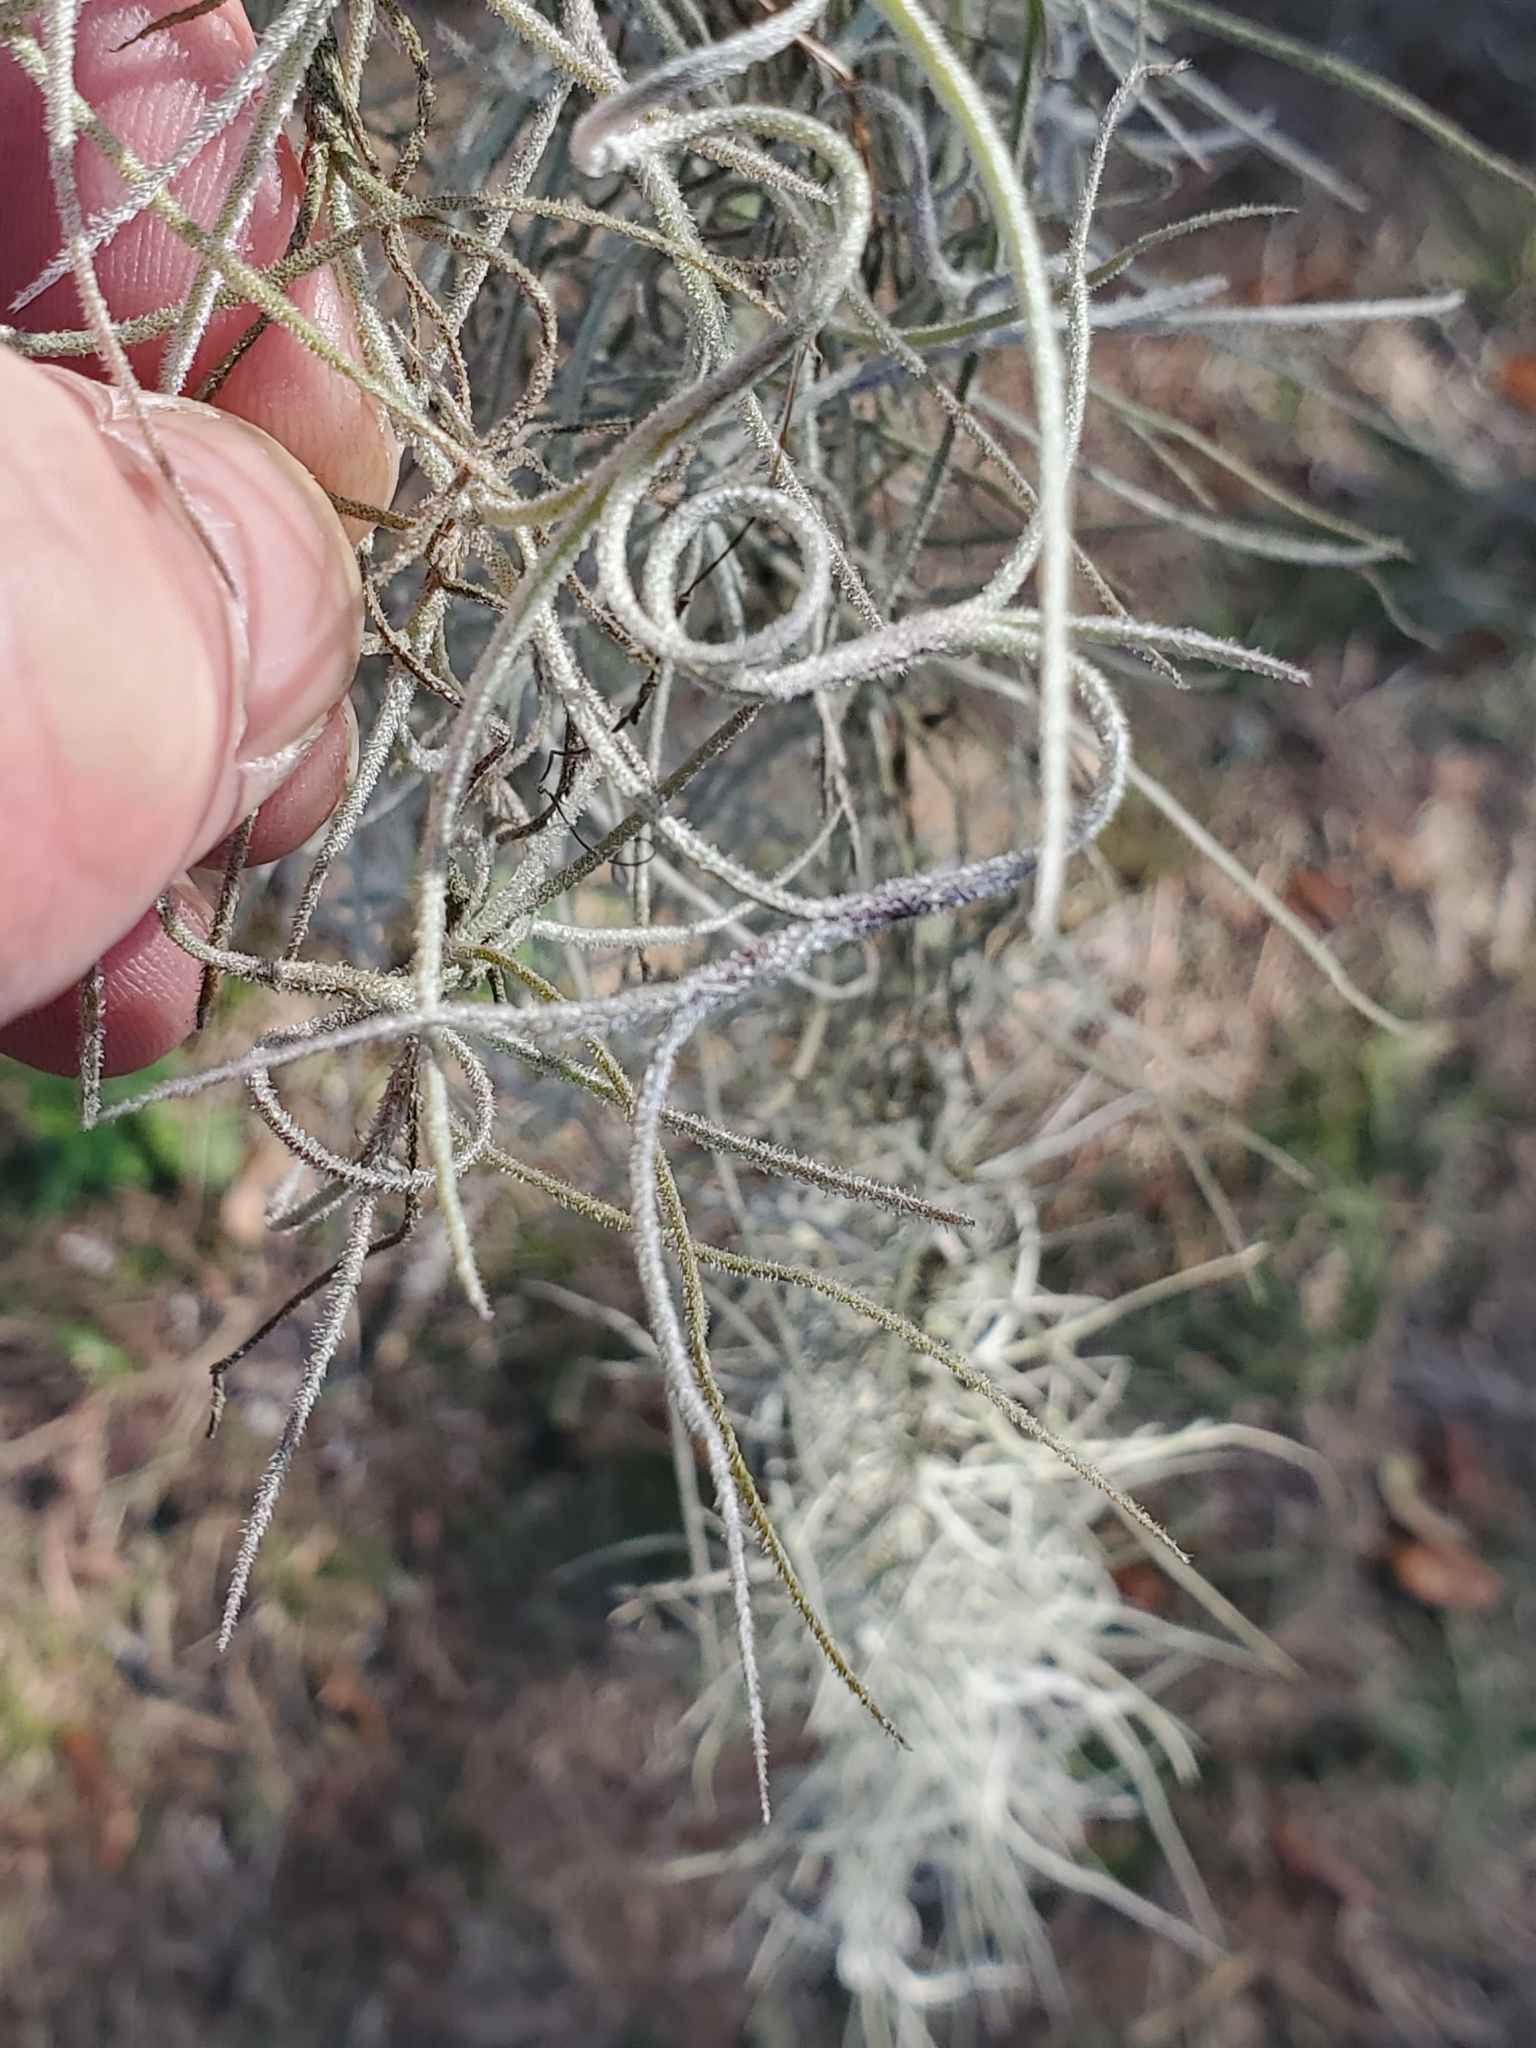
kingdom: Plantae
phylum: Tracheophyta
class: Liliopsida
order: Poales
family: Bromeliaceae
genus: Tillandsia
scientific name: Tillandsia usneoides
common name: Spanish moss
